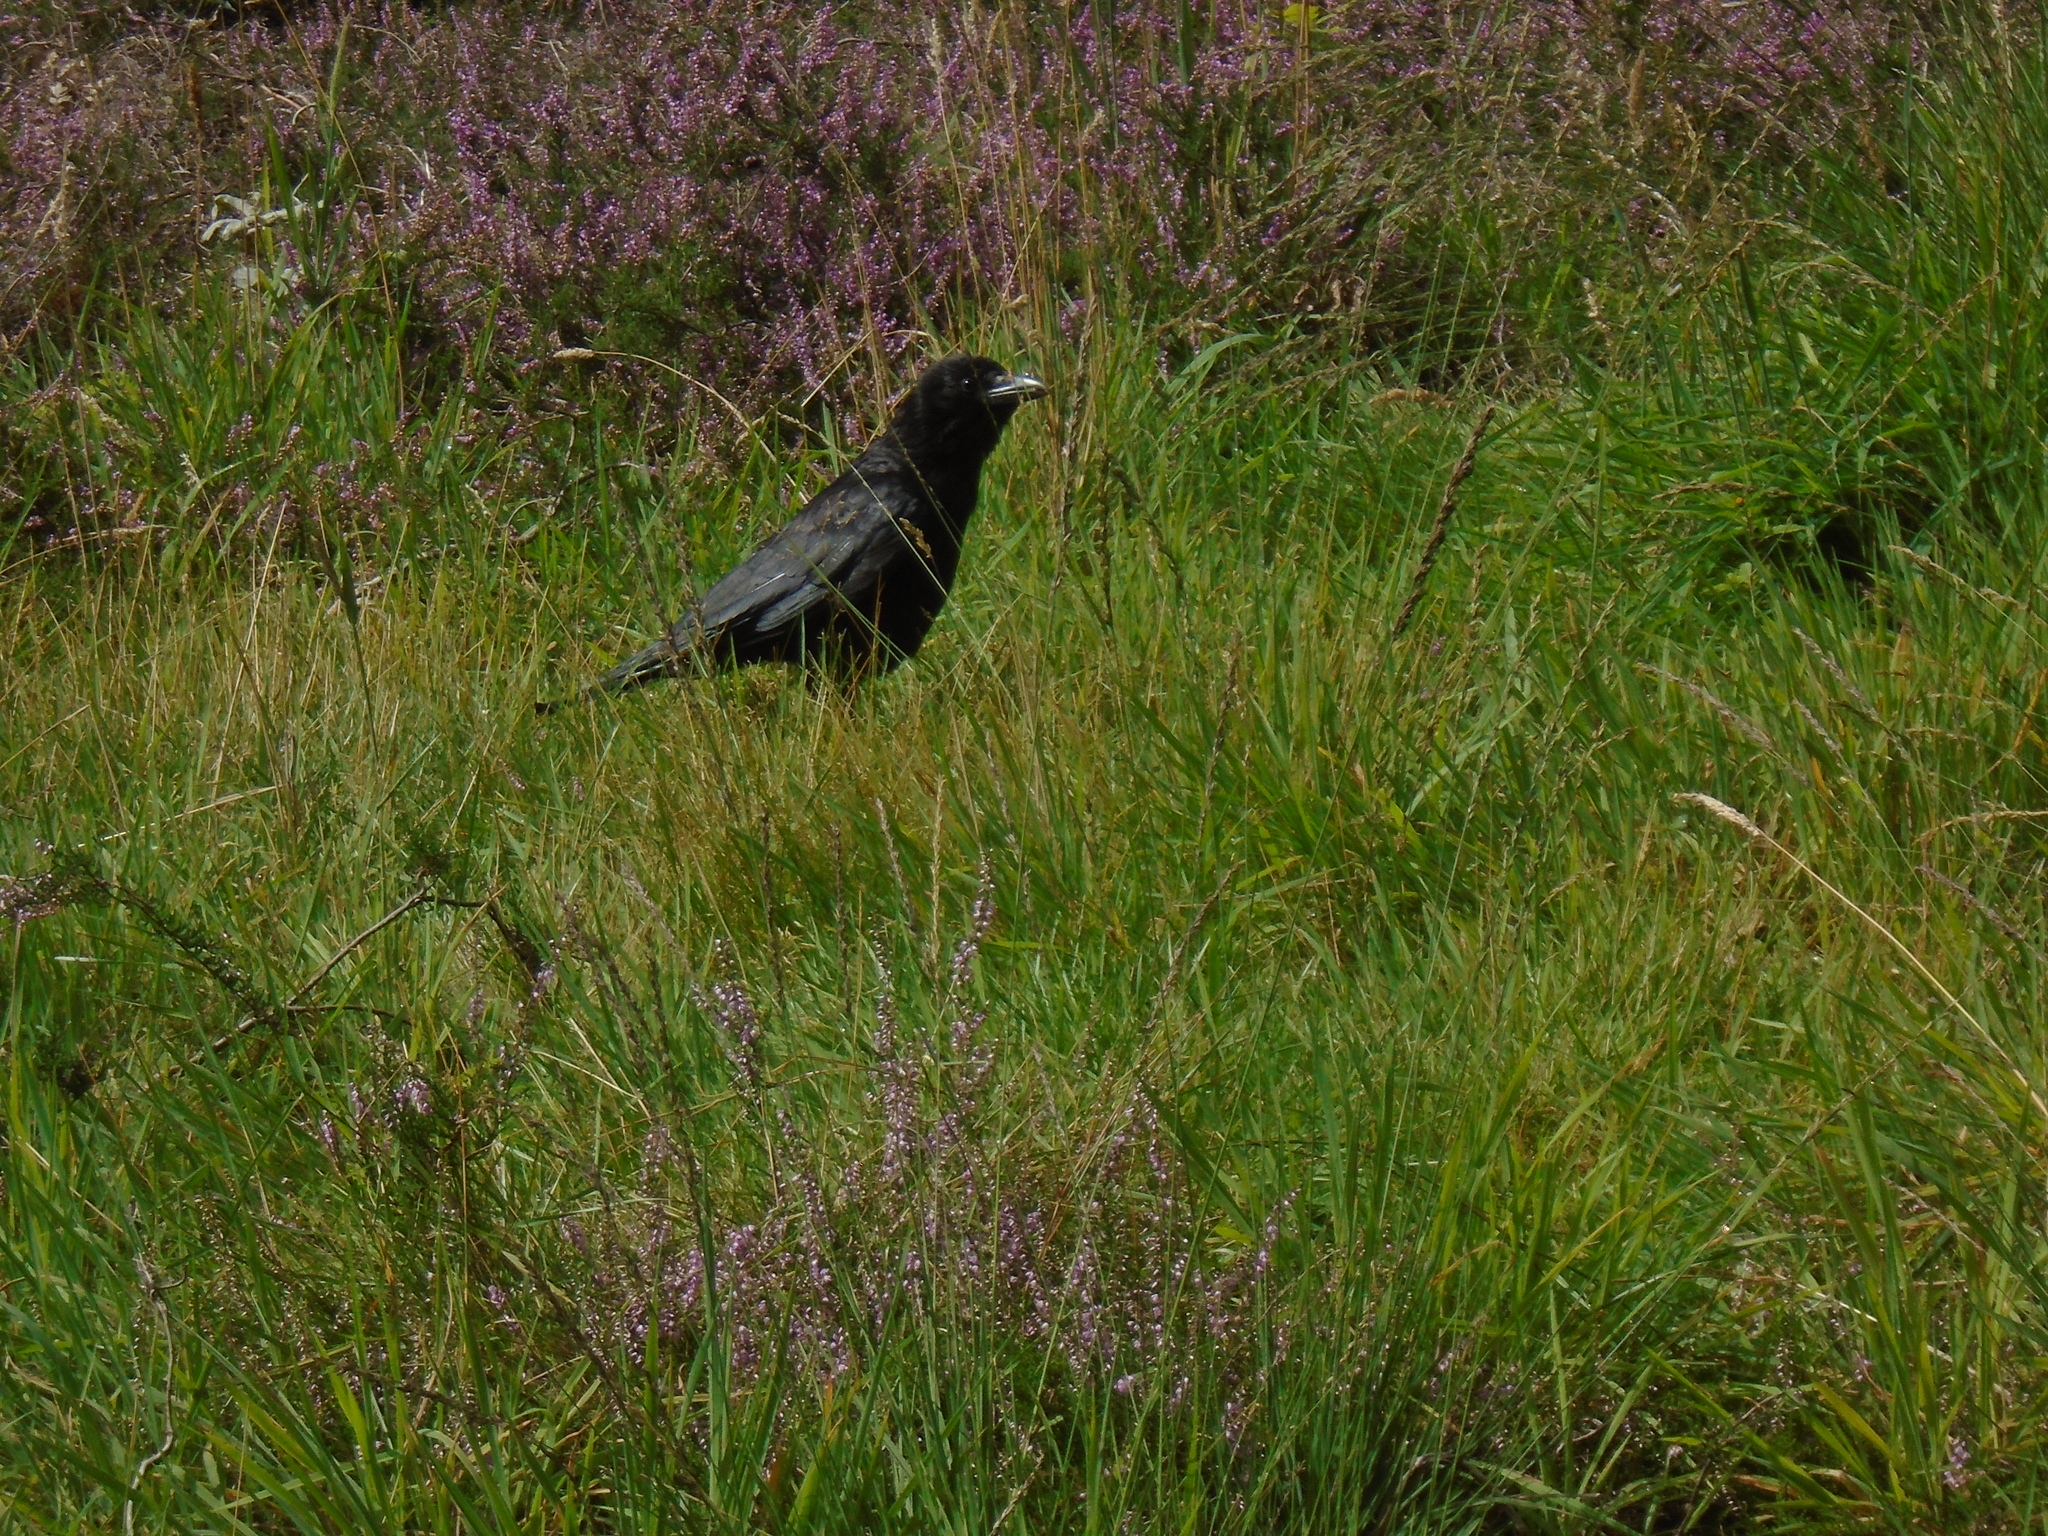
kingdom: Animalia
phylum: Chordata
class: Aves
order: Passeriformes
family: Corvidae
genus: Corvus
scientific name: Corvus corone
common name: Carrion crow
